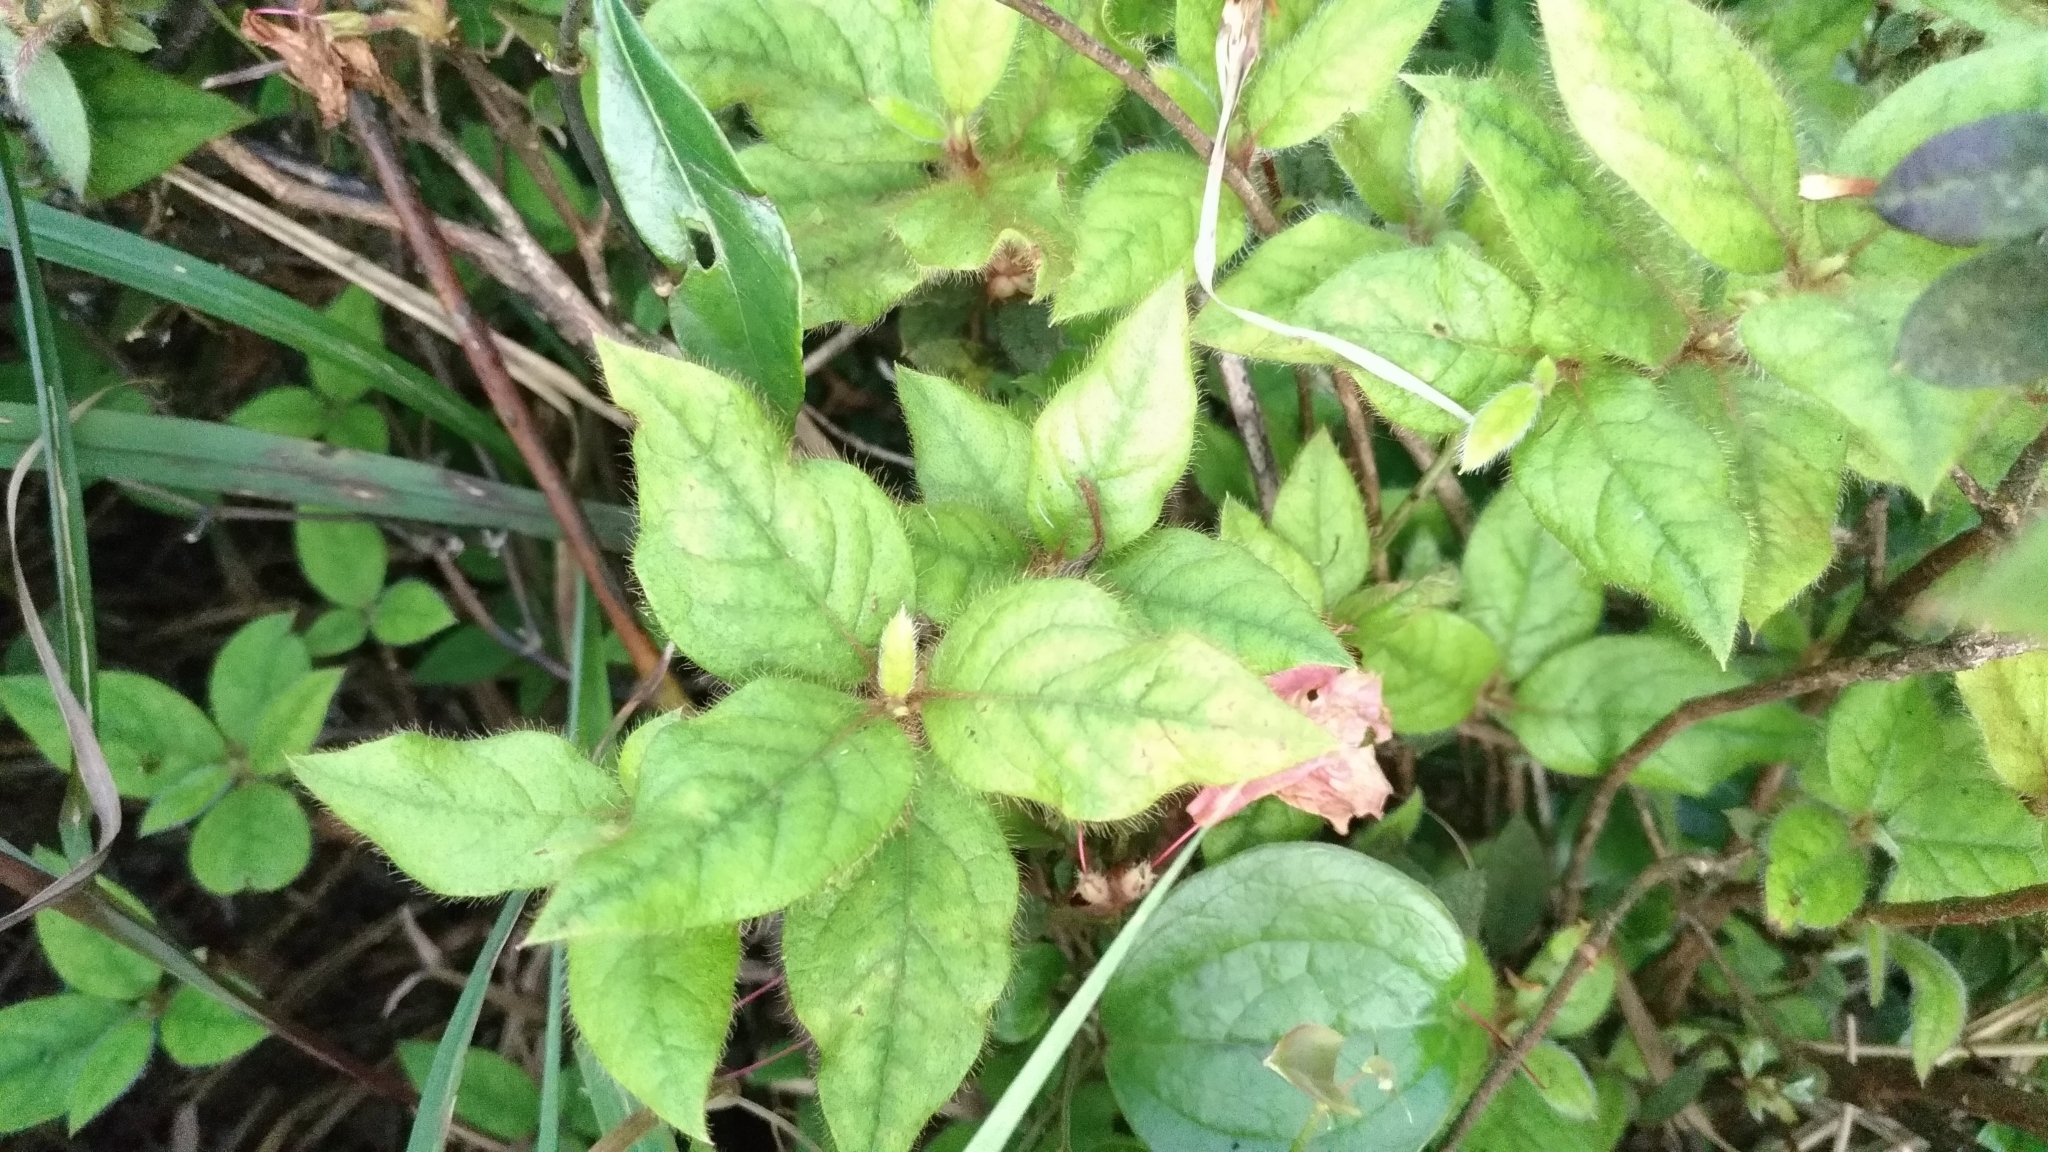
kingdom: Plantae
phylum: Tracheophyta
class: Magnoliopsida
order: Ericales
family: Ericaceae
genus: Rhododendron
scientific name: Rhododendron oldhamii
